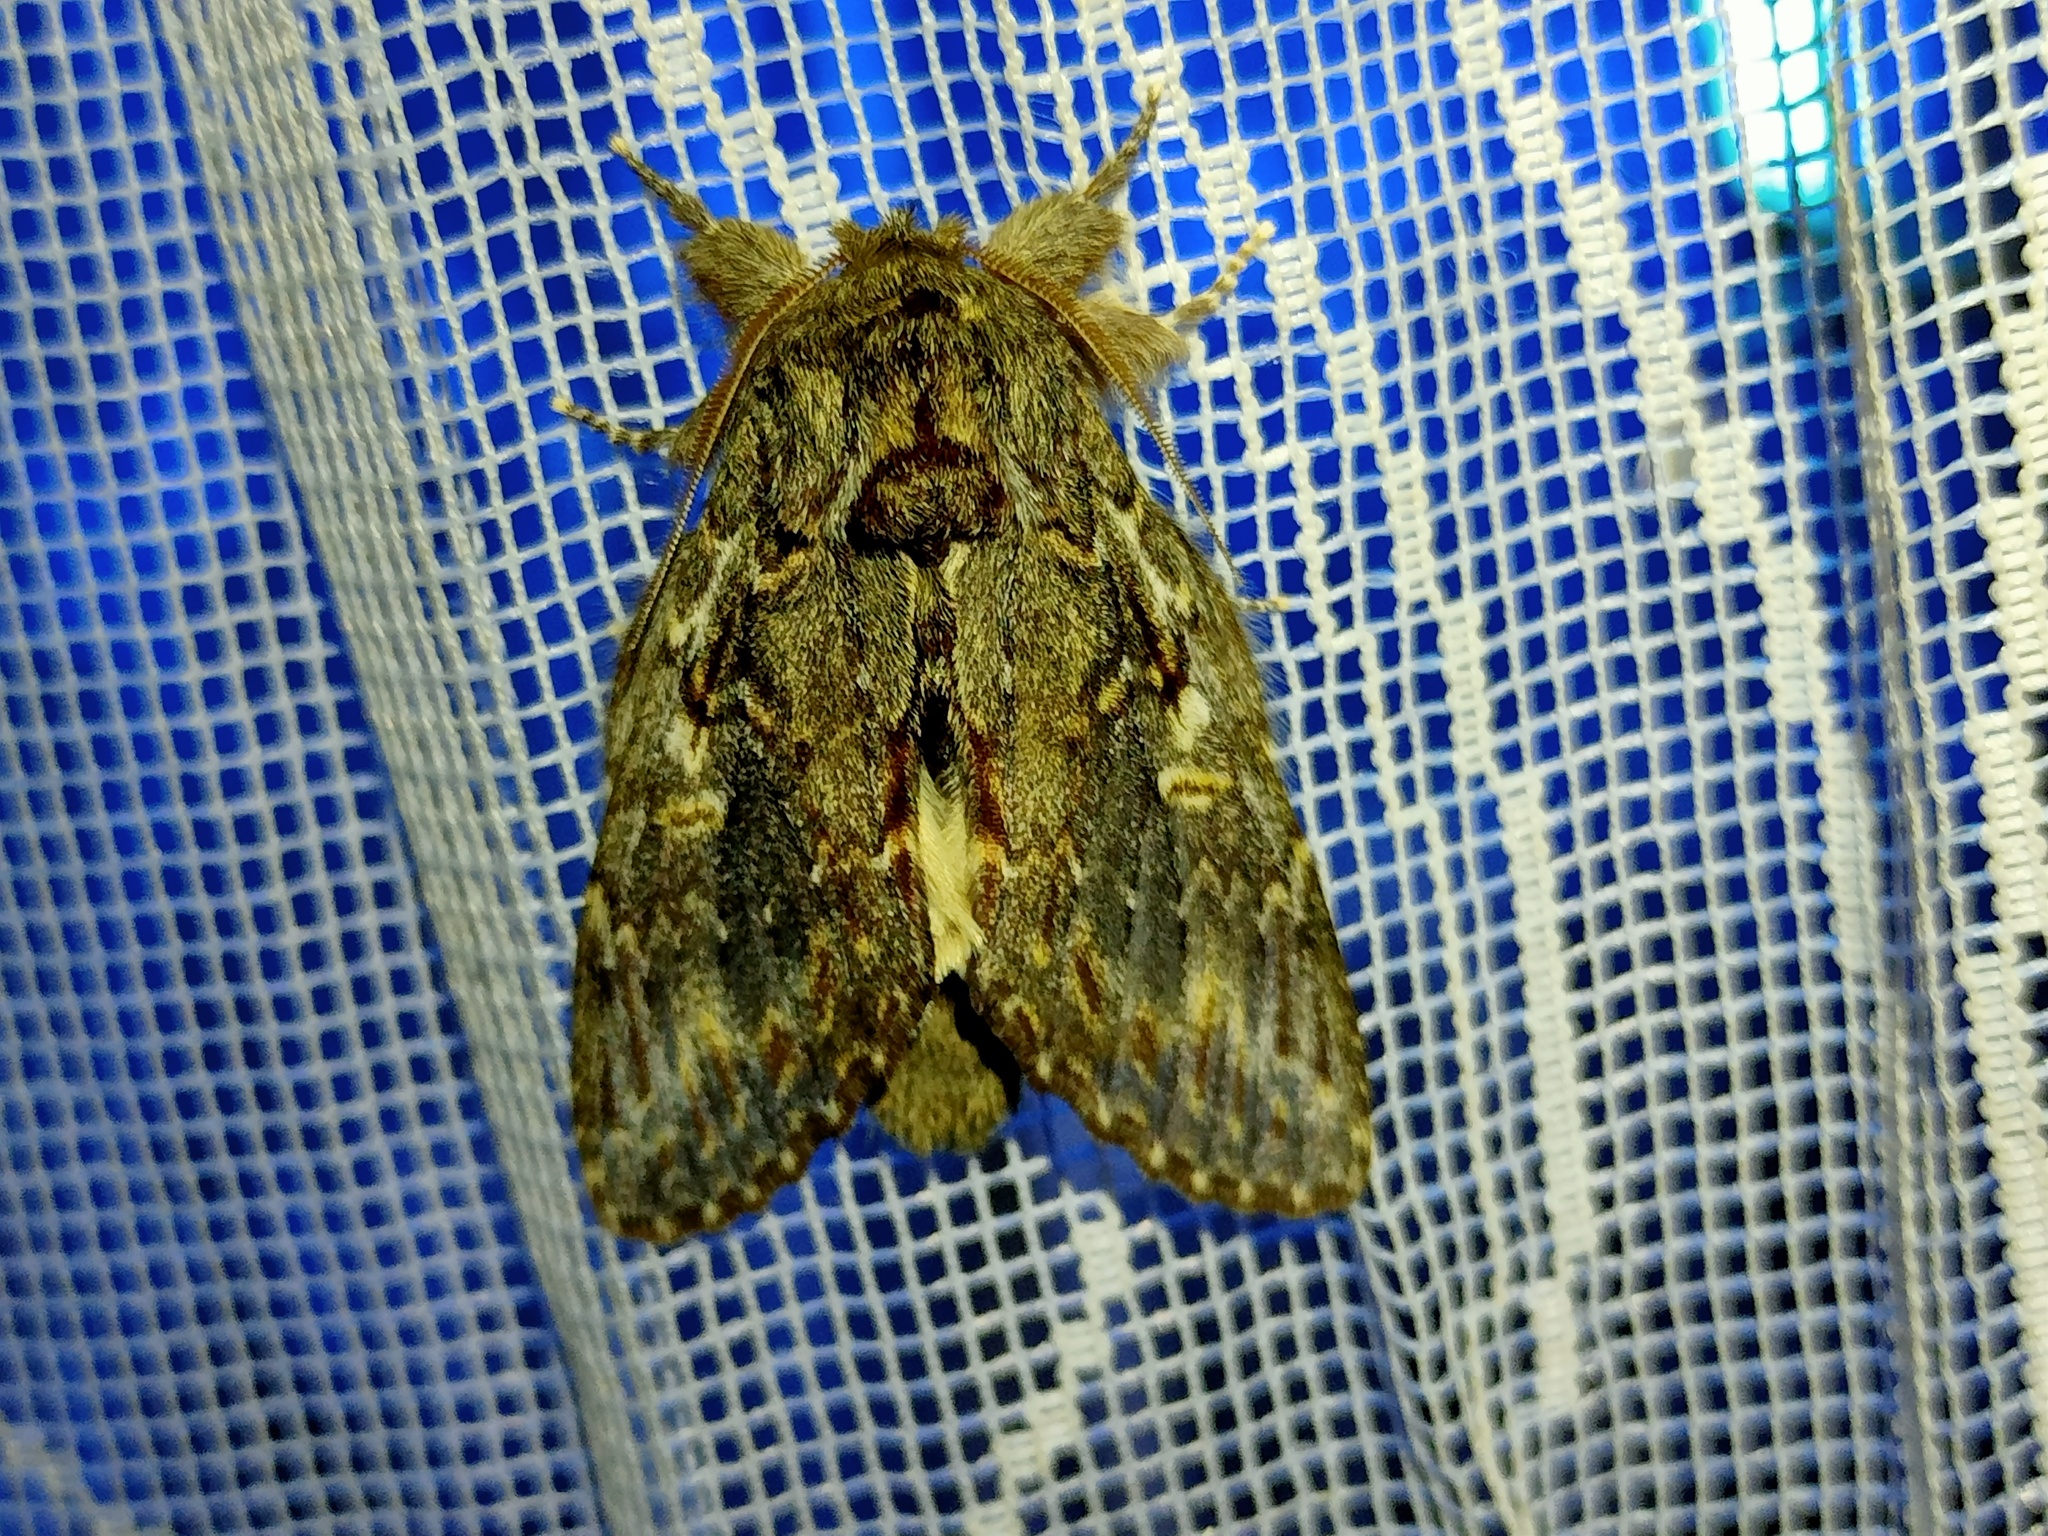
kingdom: Animalia
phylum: Arthropoda
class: Insecta
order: Lepidoptera
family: Notodontidae
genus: Peridea
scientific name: Peridea anceps
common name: Great prominent
